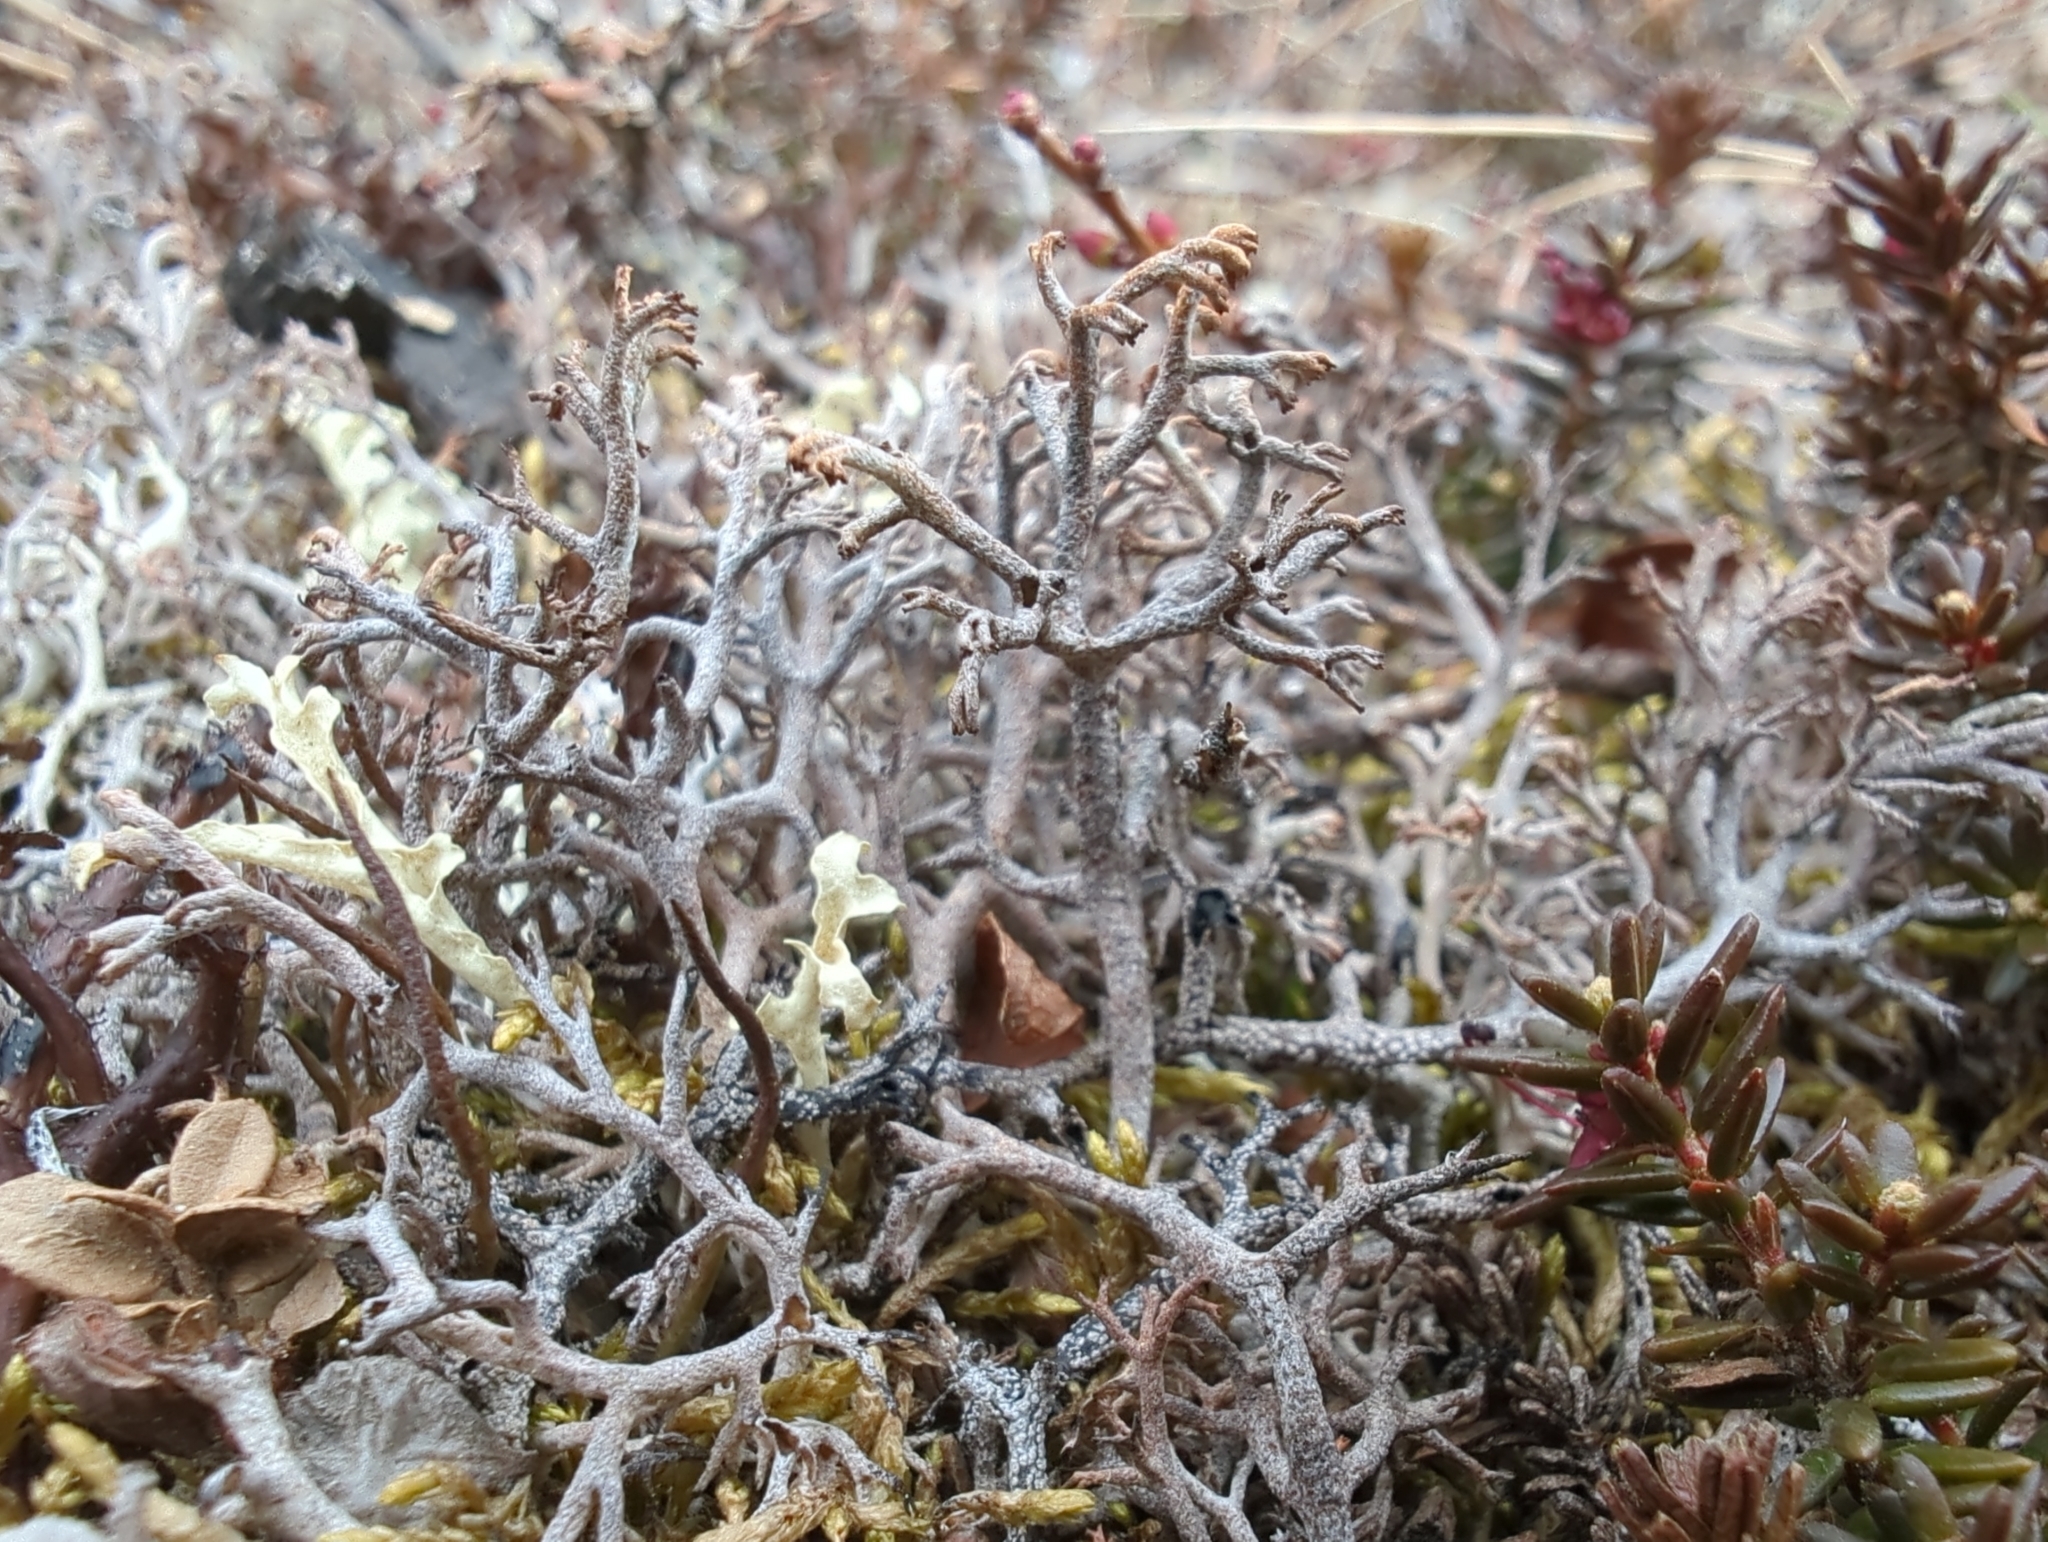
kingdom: Fungi
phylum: Ascomycota
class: Lecanoromycetes
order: Lecanorales
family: Cladoniaceae
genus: Cladonia
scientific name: Cladonia stygia
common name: Black-footed reindeer lichen
